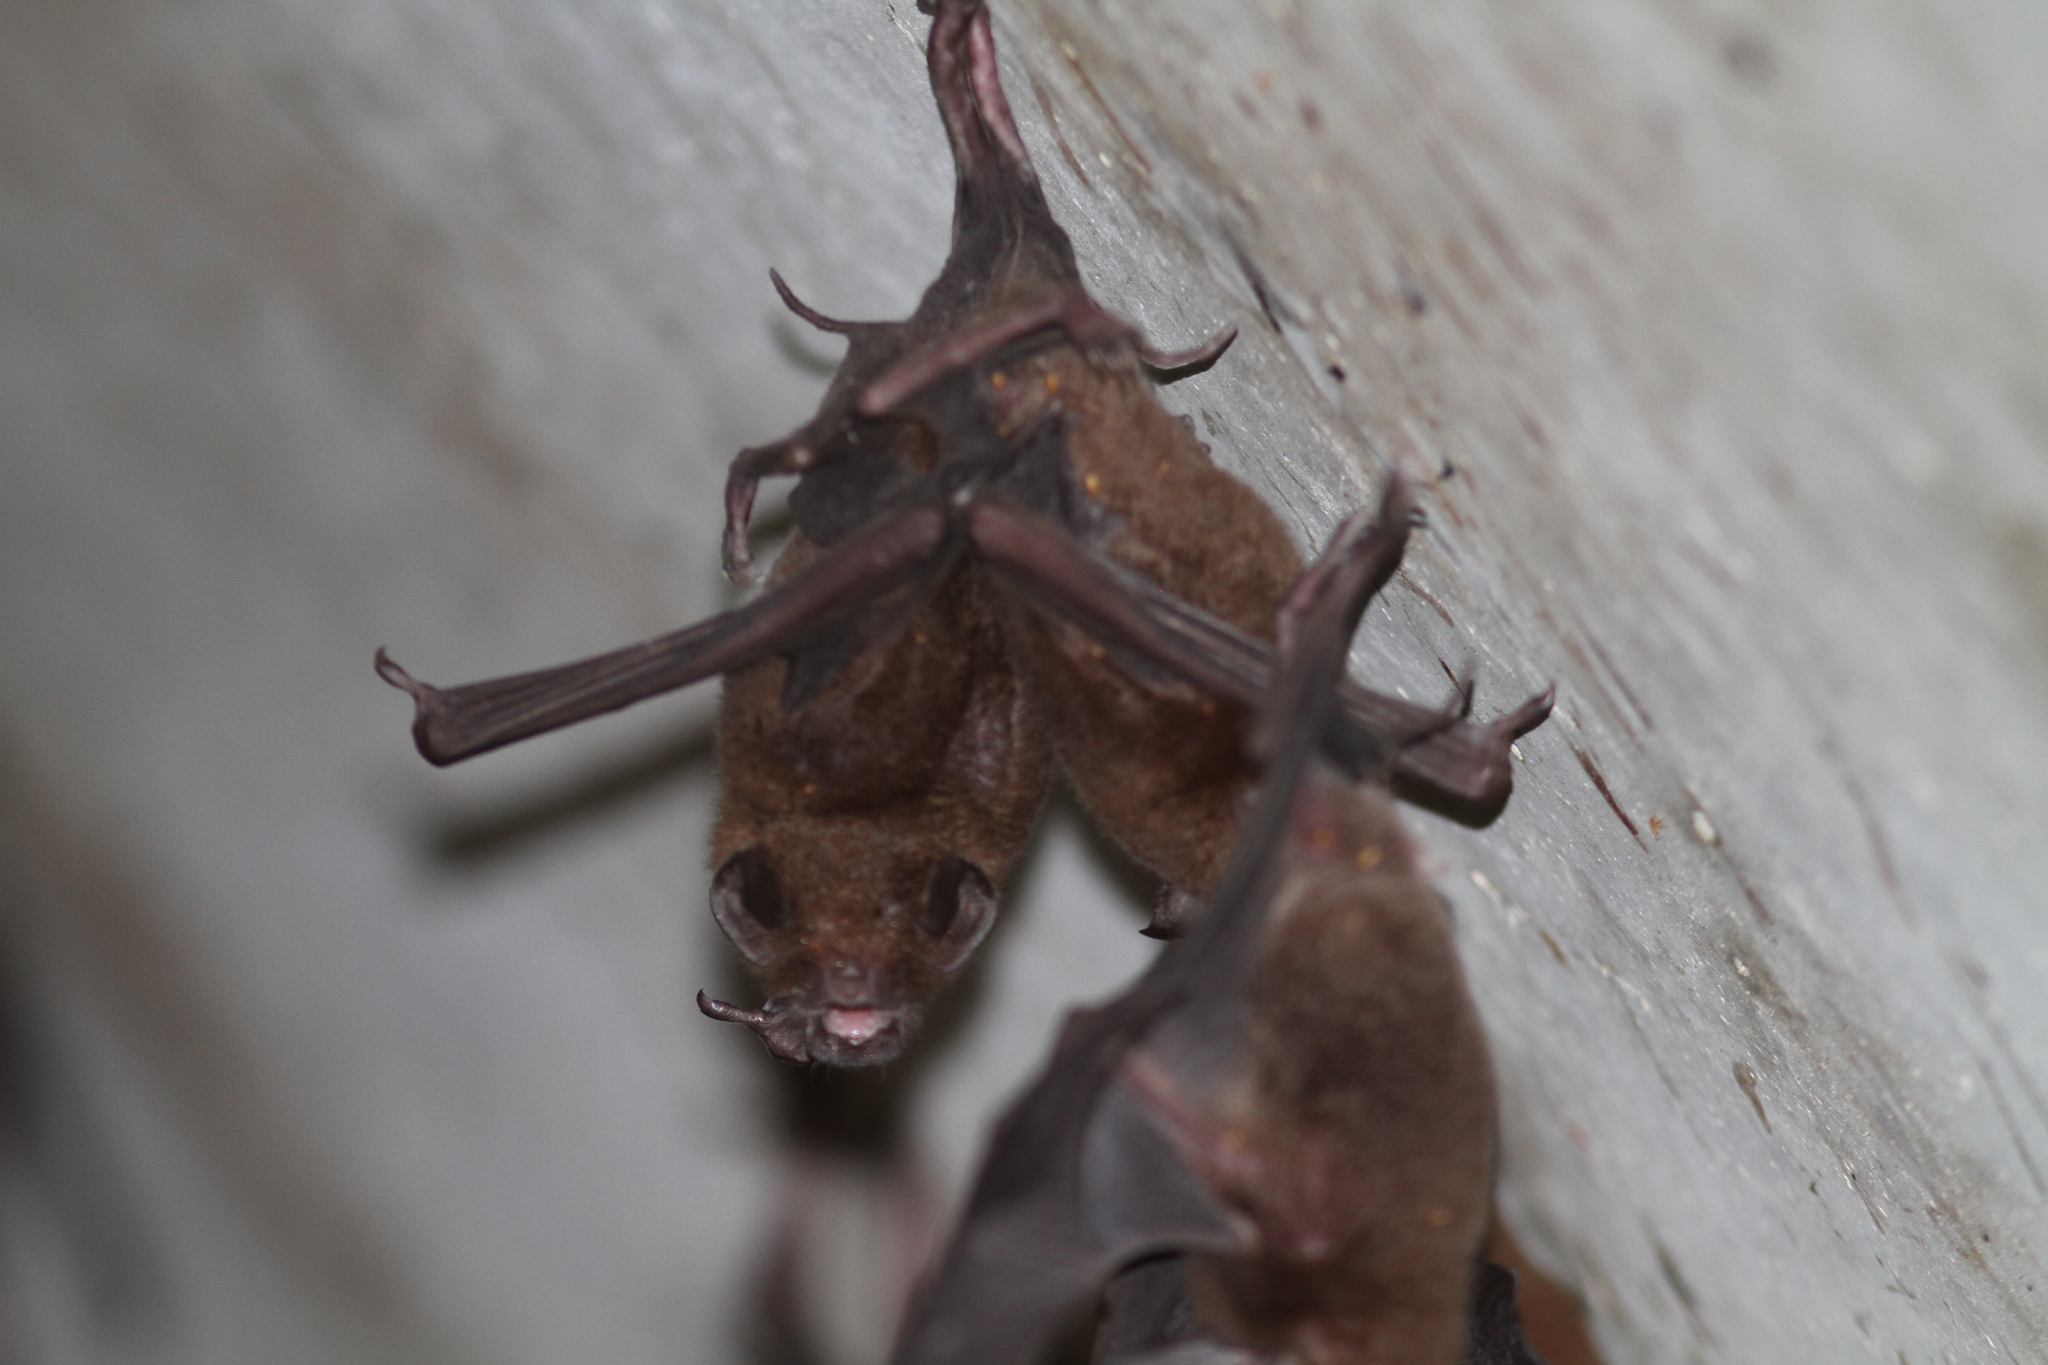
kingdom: Animalia
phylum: Chordata
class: Mammalia
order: Chiroptera
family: Mormoopidae
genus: Pteronotus
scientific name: Pteronotus
